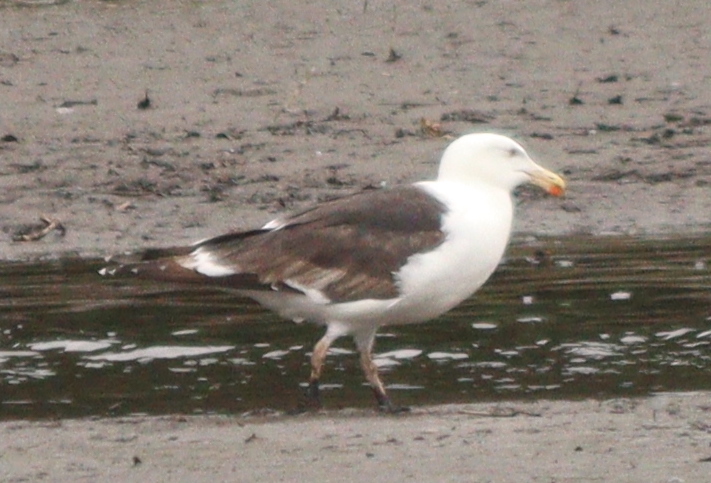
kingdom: Animalia
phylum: Chordata
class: Aves
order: Charadriiformes
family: Laridae
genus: Larus
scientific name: Larus marinus
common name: Great black-backed gull
